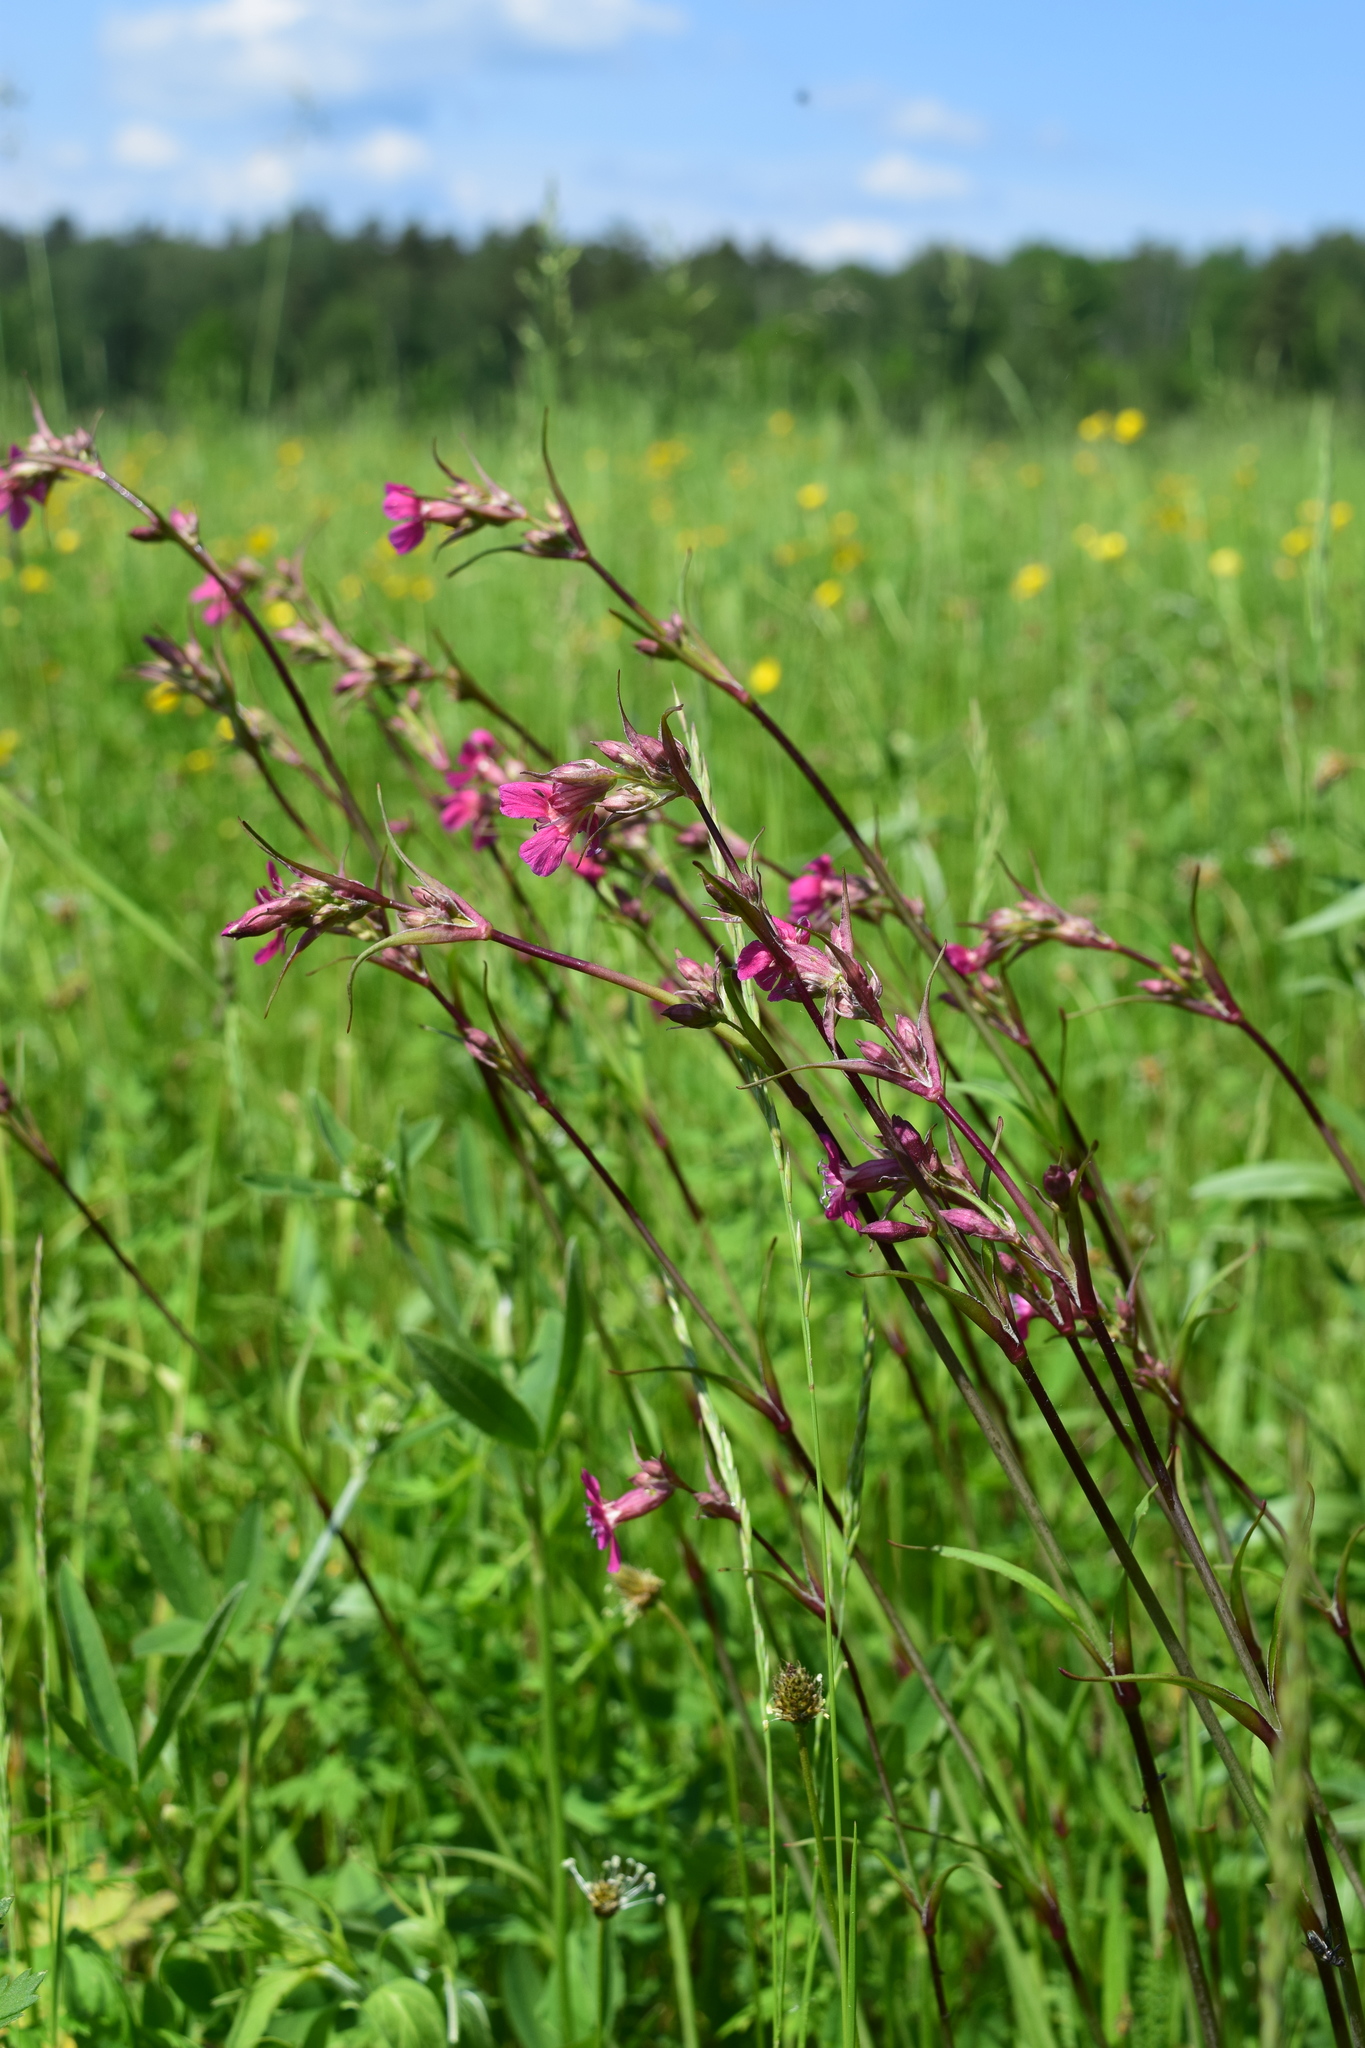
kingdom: Plantae
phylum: Tracheophyta
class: Magnoliopsida
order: Caryophyllales
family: Caryophyllaceae
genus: Viscaria
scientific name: Viscaria vulgaris
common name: Clammy campion
